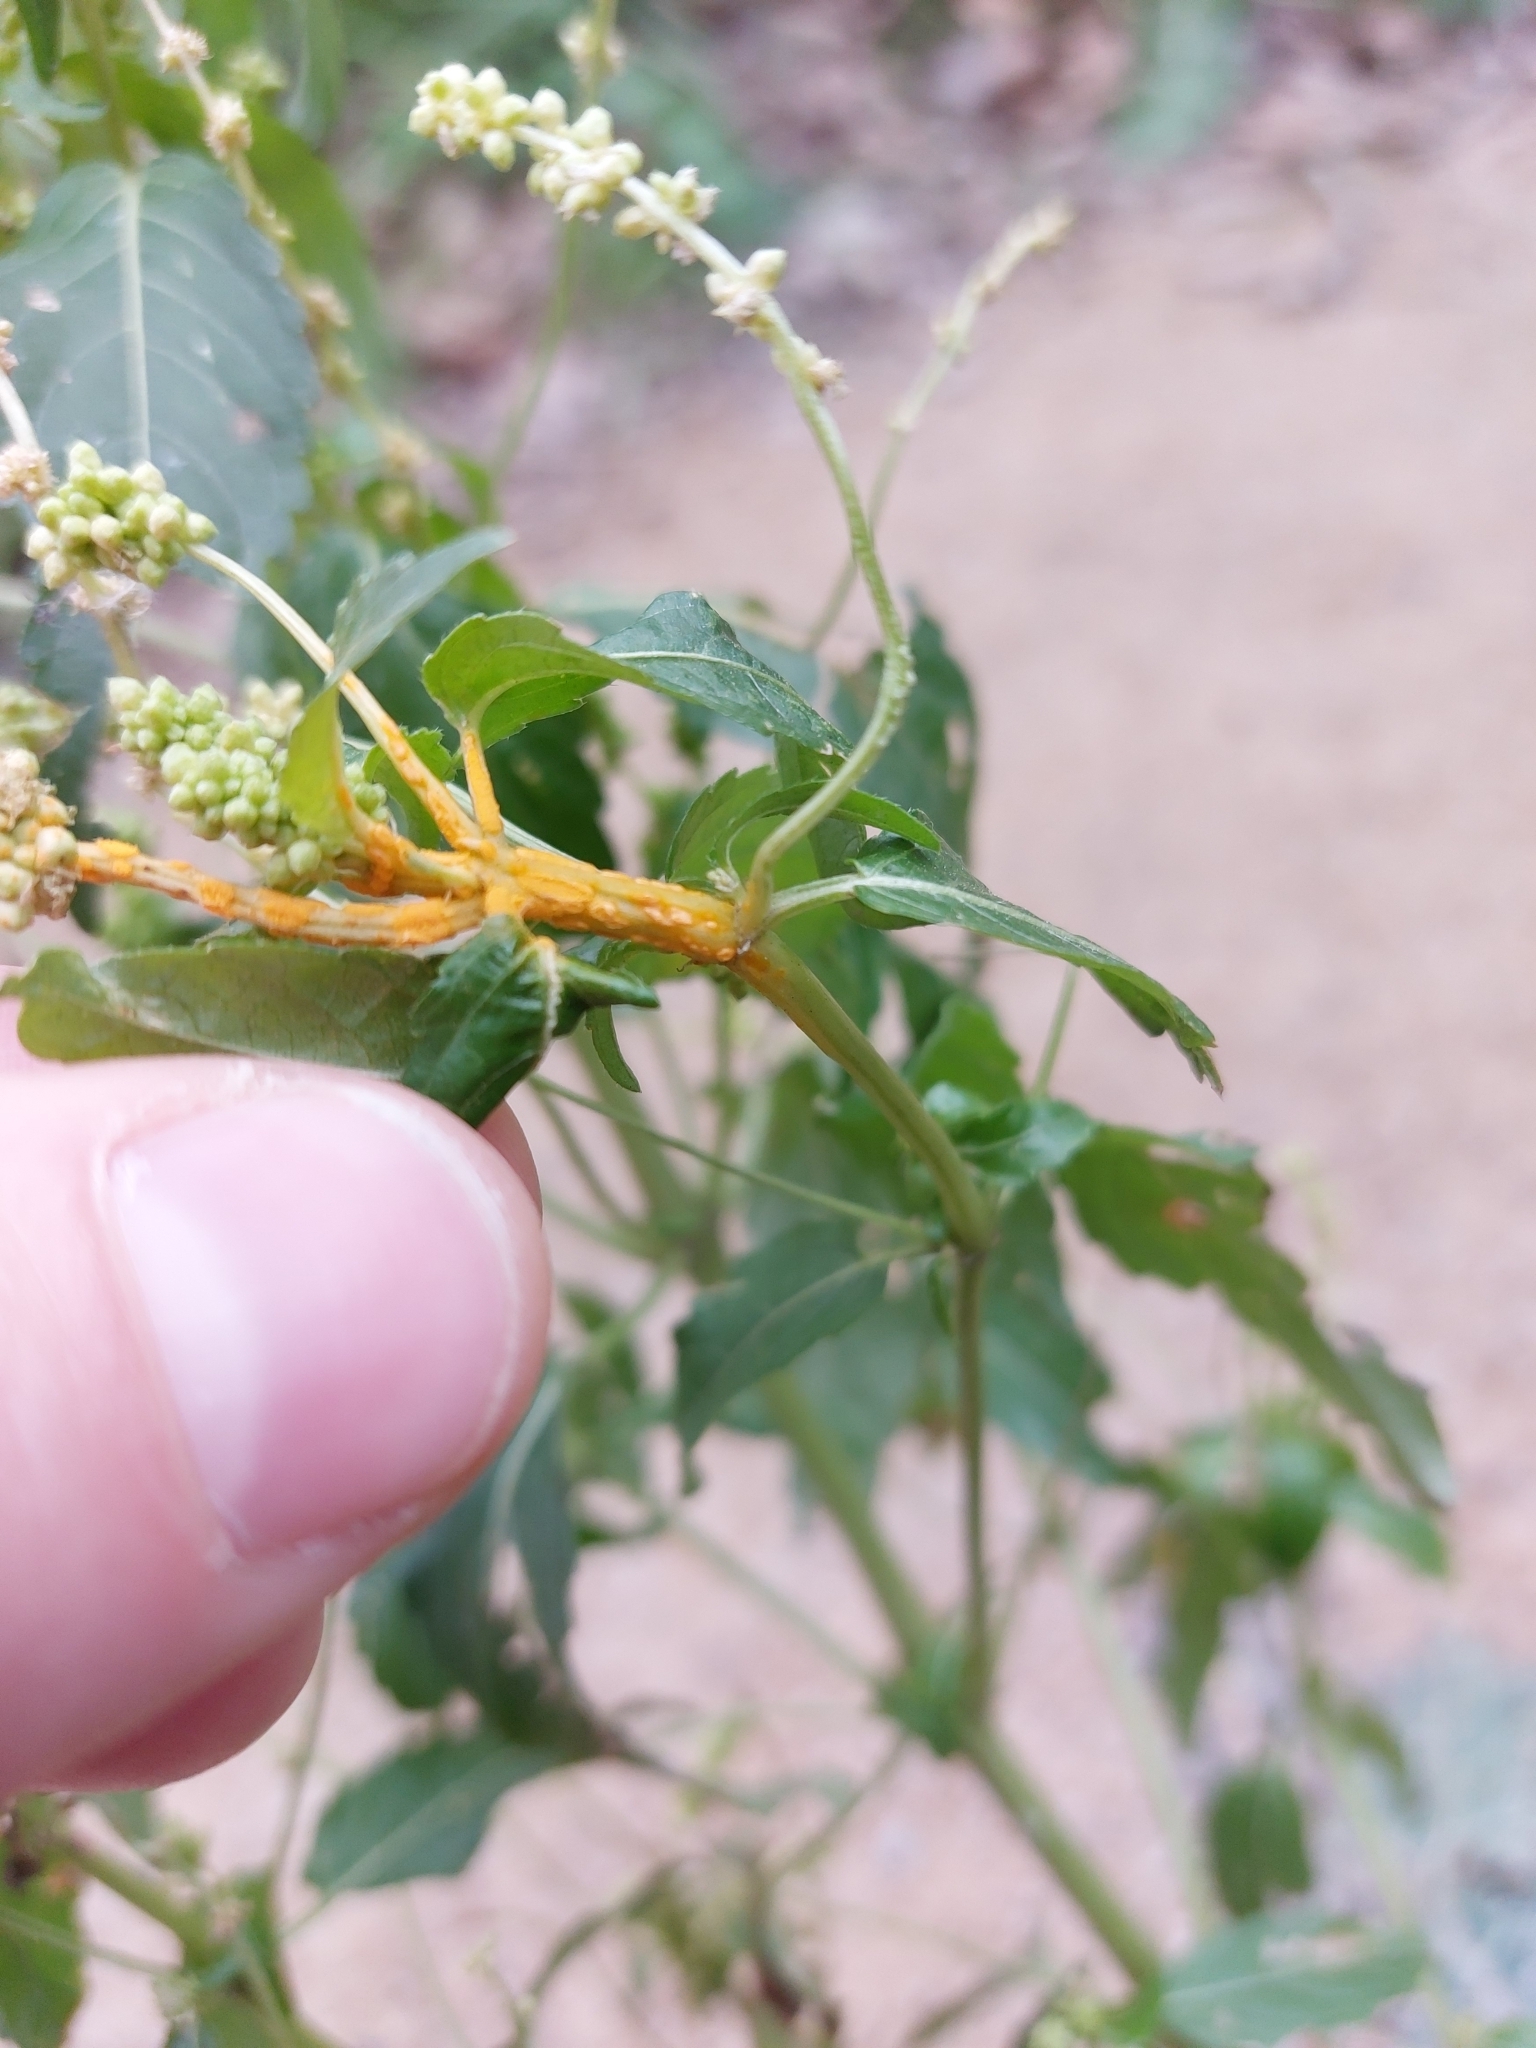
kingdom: Fungi
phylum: Basidiomycota
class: Pucciniomycetes
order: Pucciniales
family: Melampsoraceae
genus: Melampsora
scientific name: Melampsora pulcherrima
